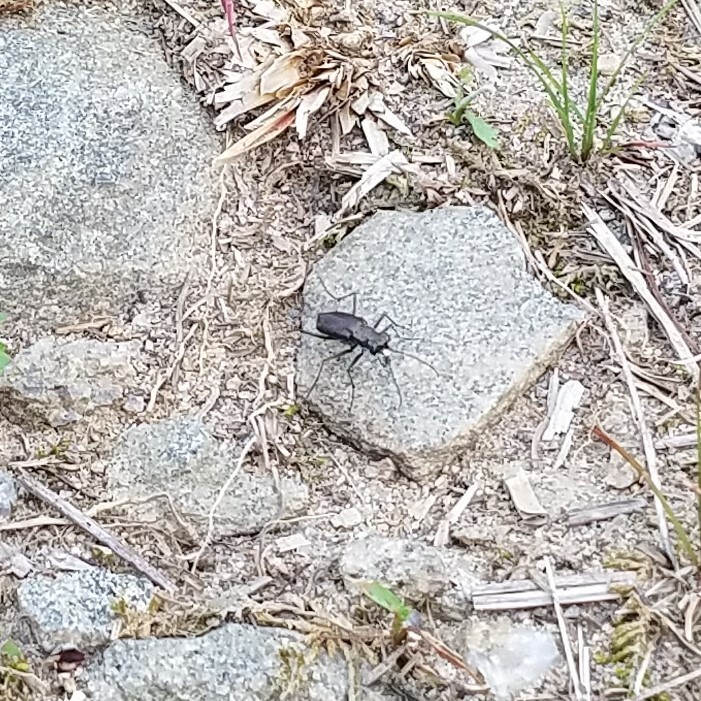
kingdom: Animalia
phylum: Arthropoda
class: Insecta
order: Coleoptera
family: Carabidae
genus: Cicindela
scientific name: Cicindela punctulata
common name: Punctured tiger beetle
